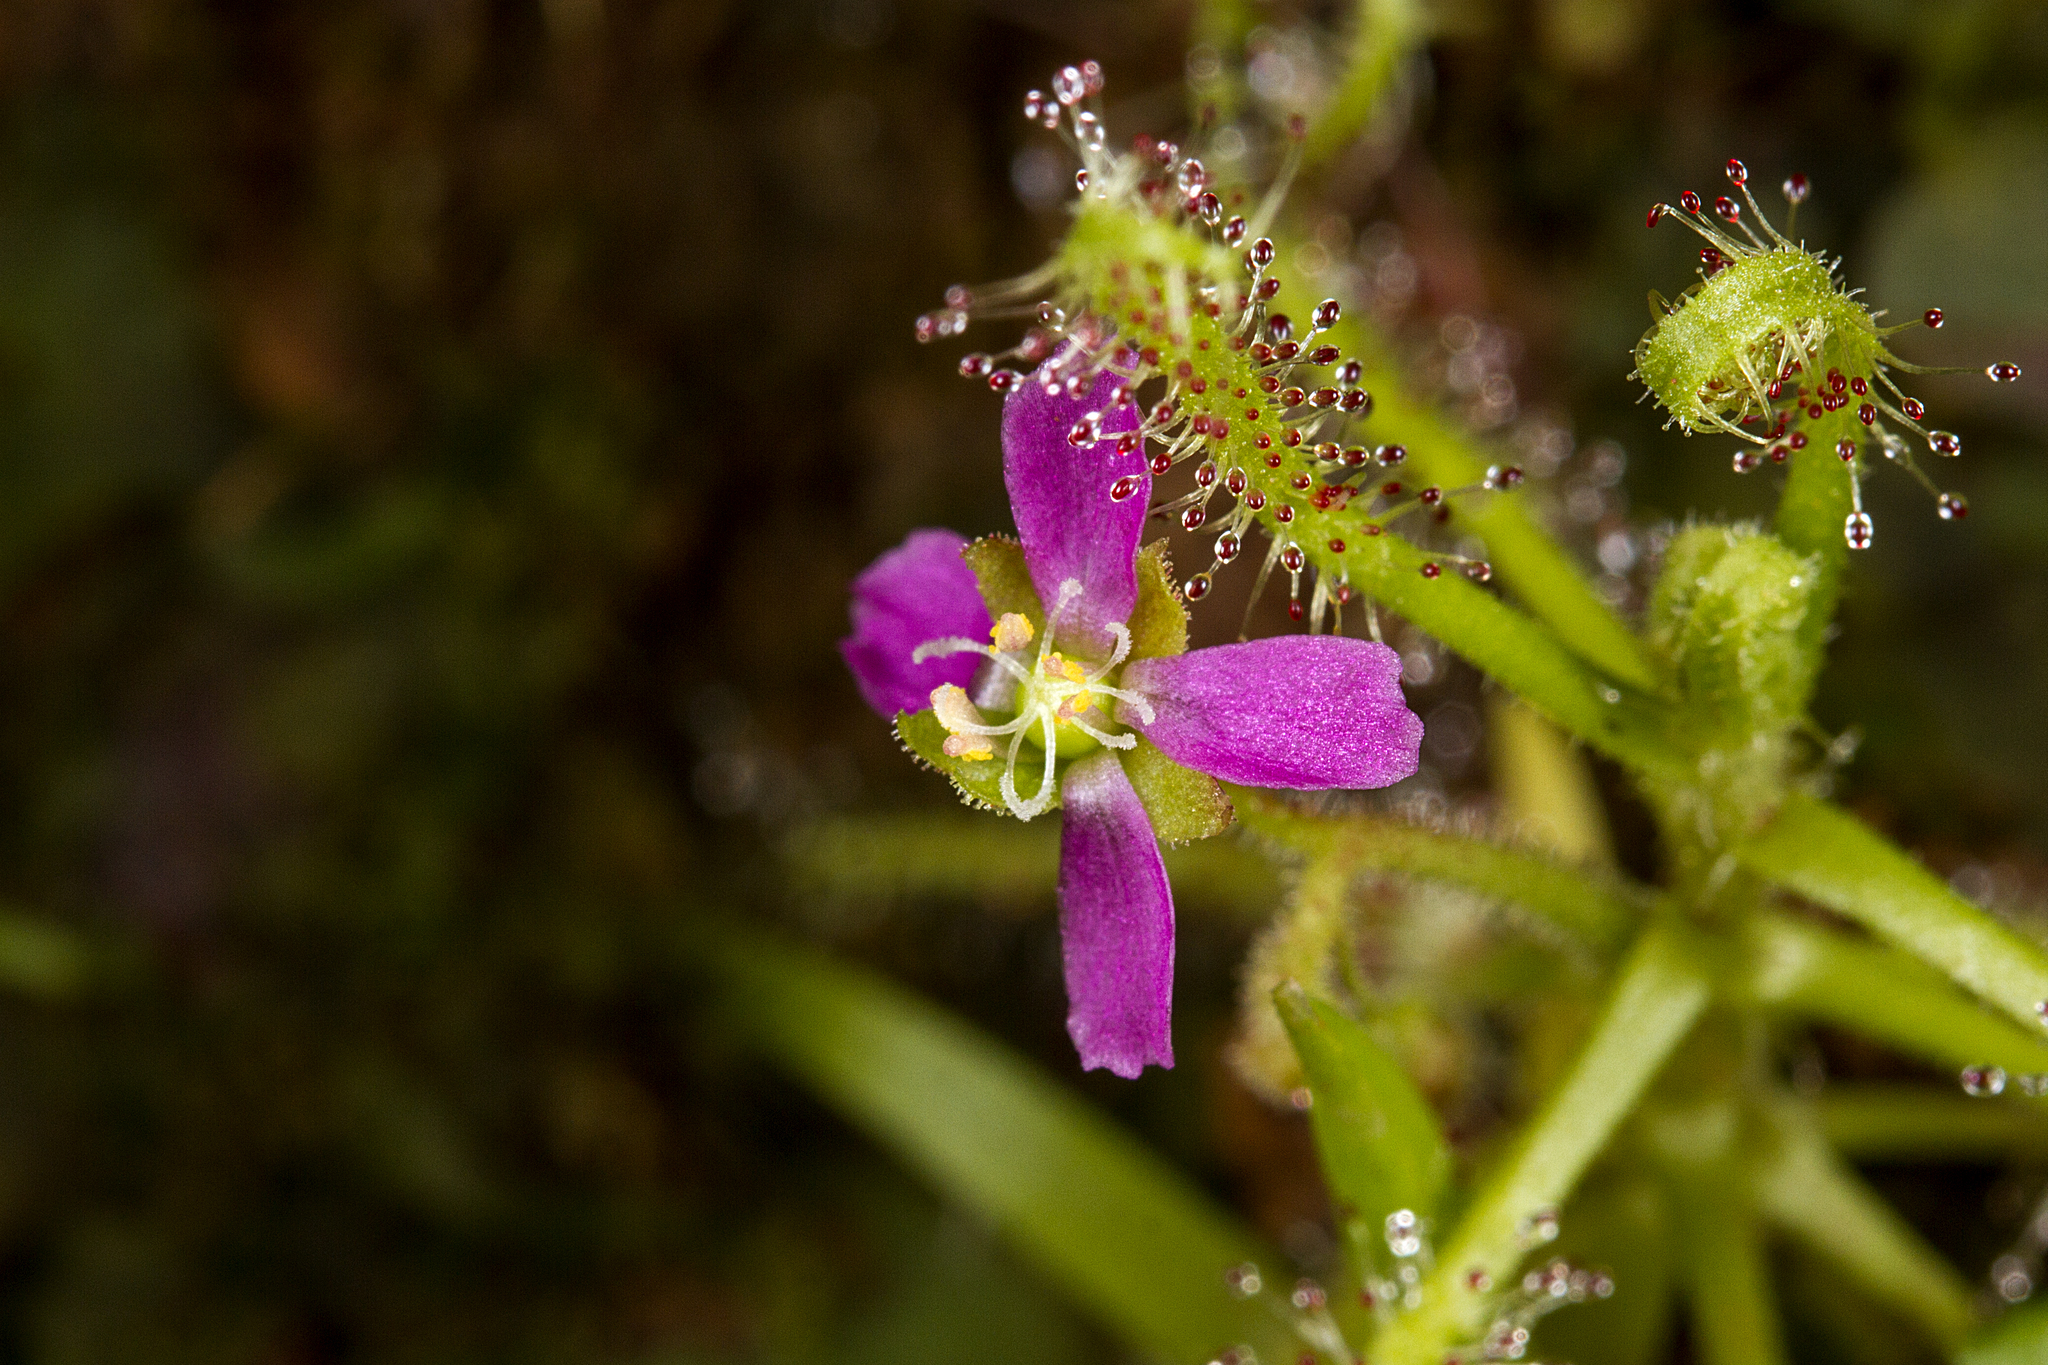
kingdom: Plantae
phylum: Tracheophyta
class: Magnoliopsida
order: Caryophyllales
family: Droseraceae
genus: Drosera
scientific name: Drosera indica
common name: Indian sundew
